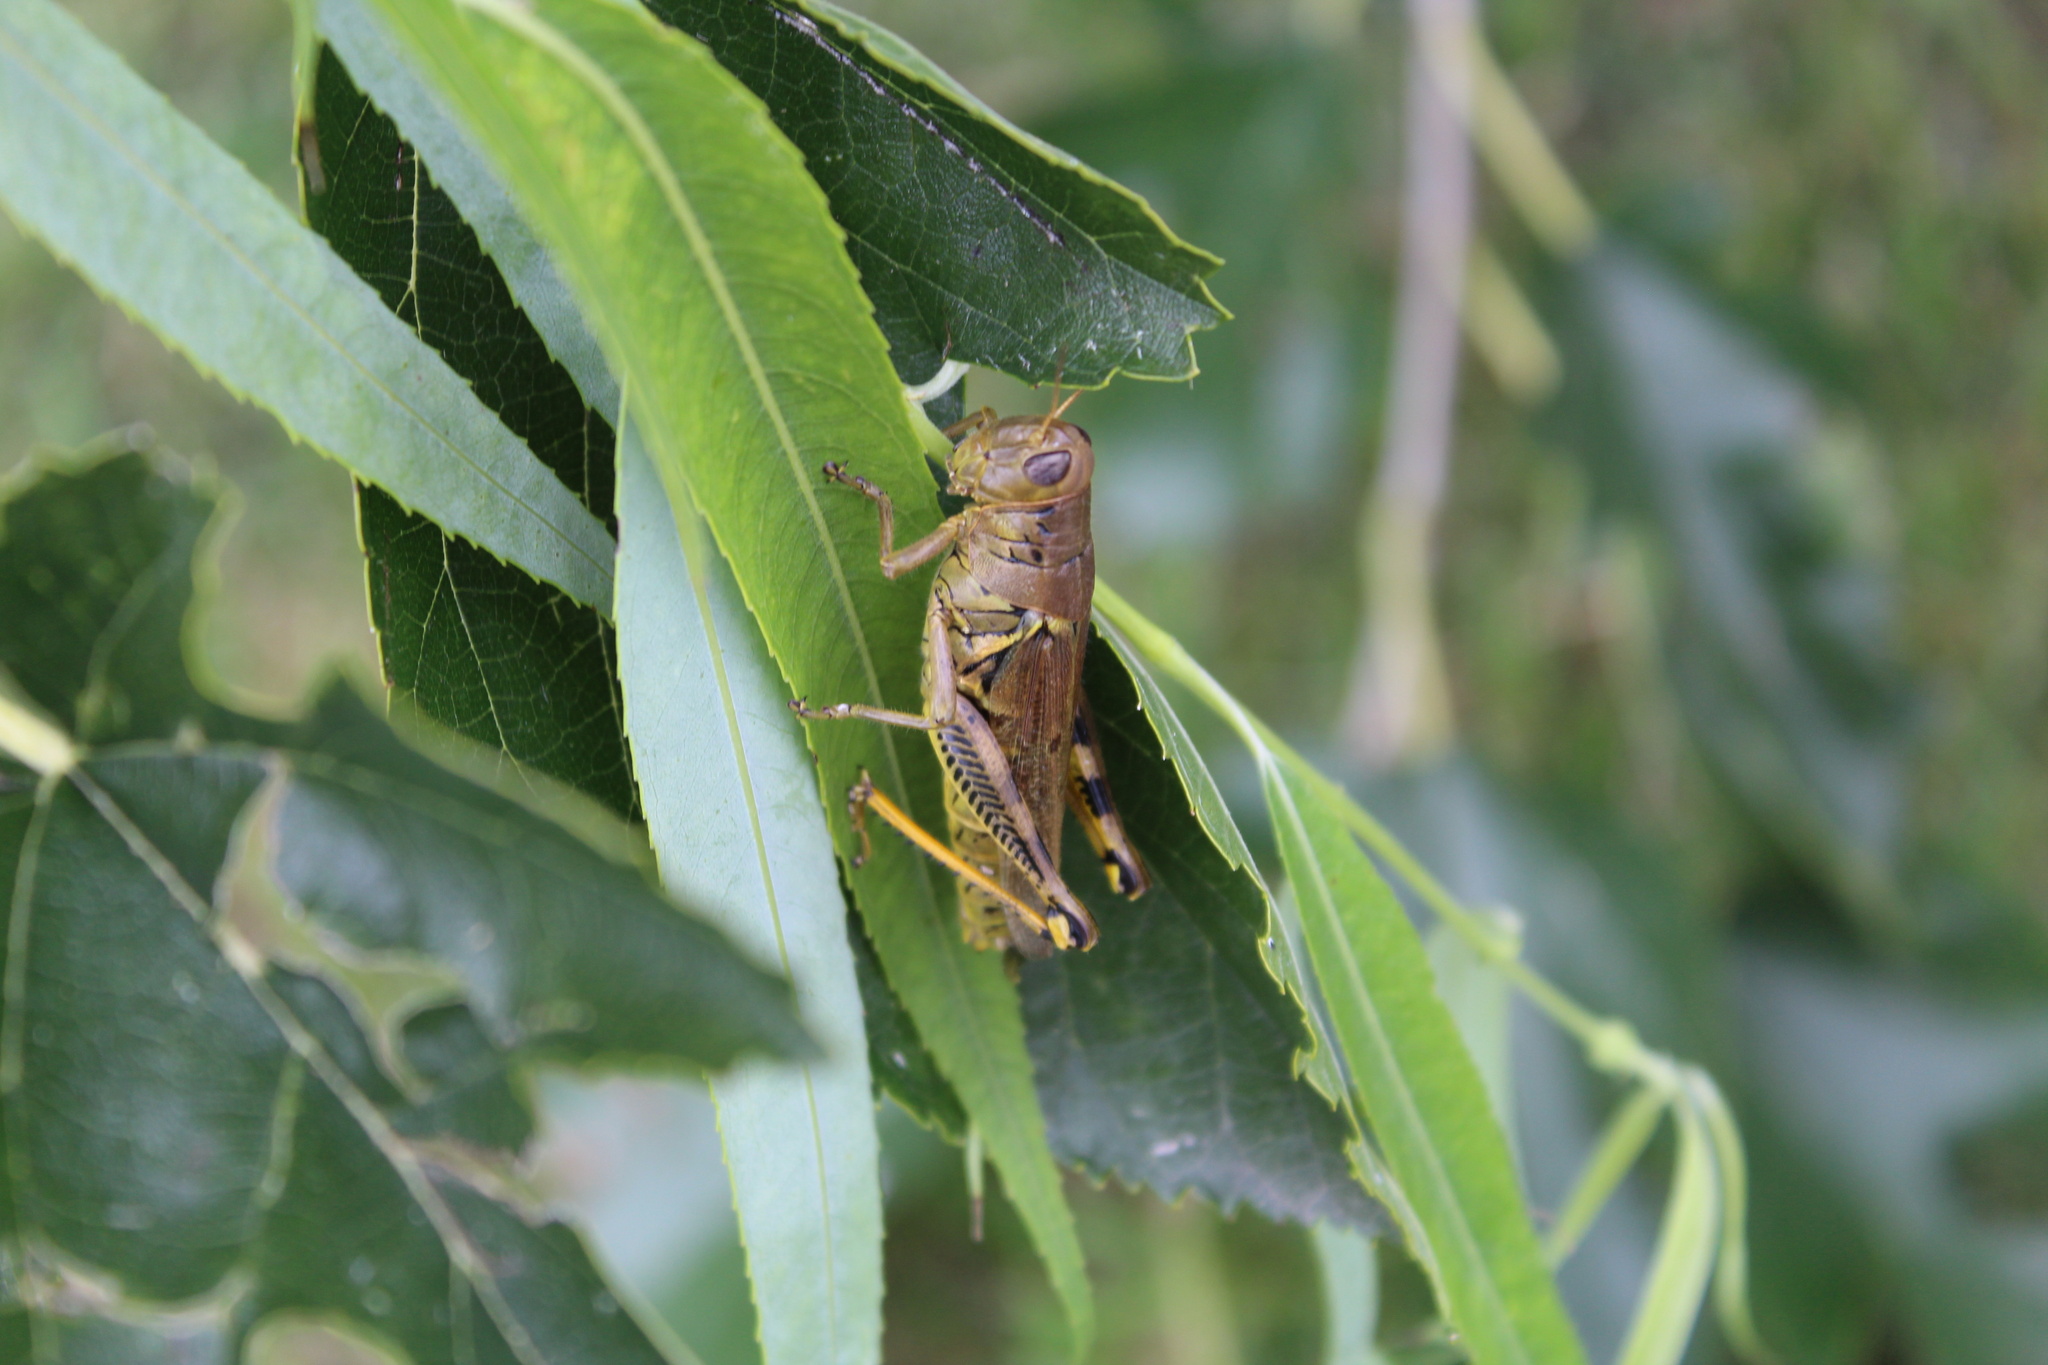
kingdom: Animalia
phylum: Arthropoda
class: Insecta
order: Orthoptera
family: Acrididae
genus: Melanoplus
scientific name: Melanoplus differentialis
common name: Differential grasshopper
